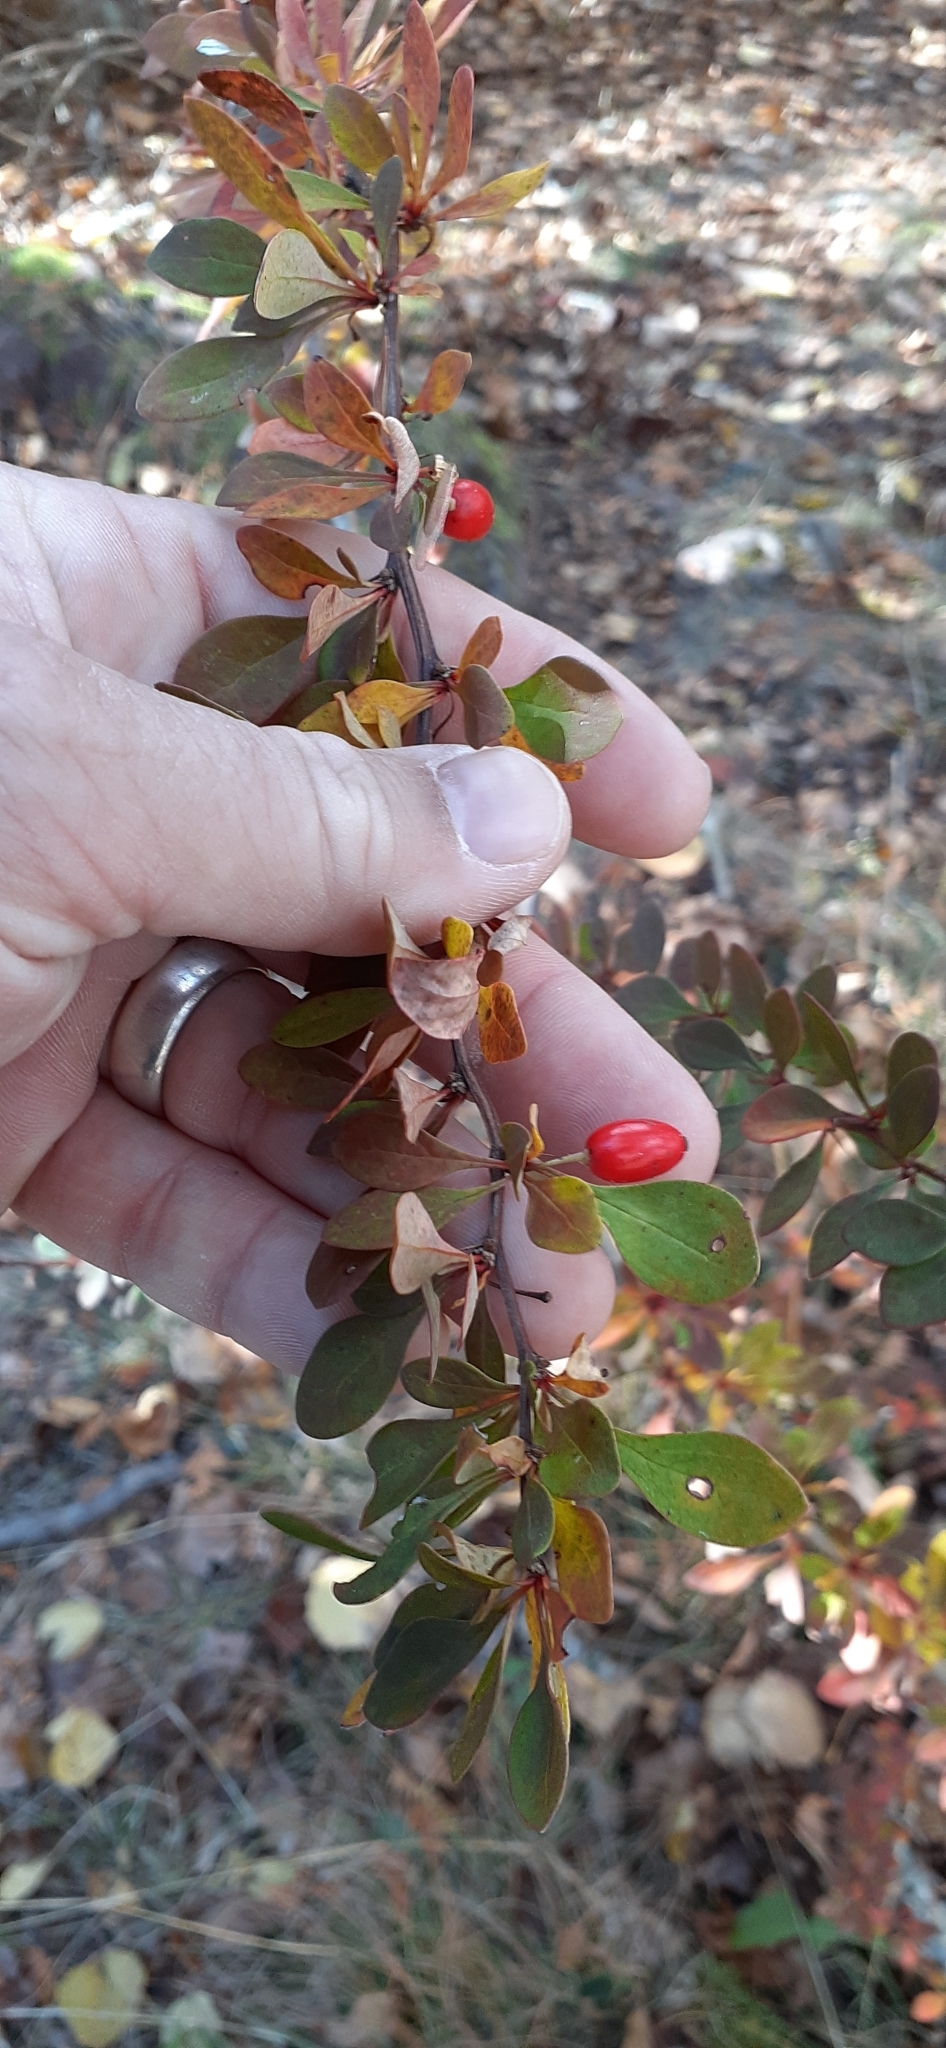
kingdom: Plantae
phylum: Tracheophyta
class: Magnoliopsida
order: Ranunculales
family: Berberidaceae
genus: Berberis
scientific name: Berberis thunbergii
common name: Japanese barberry
